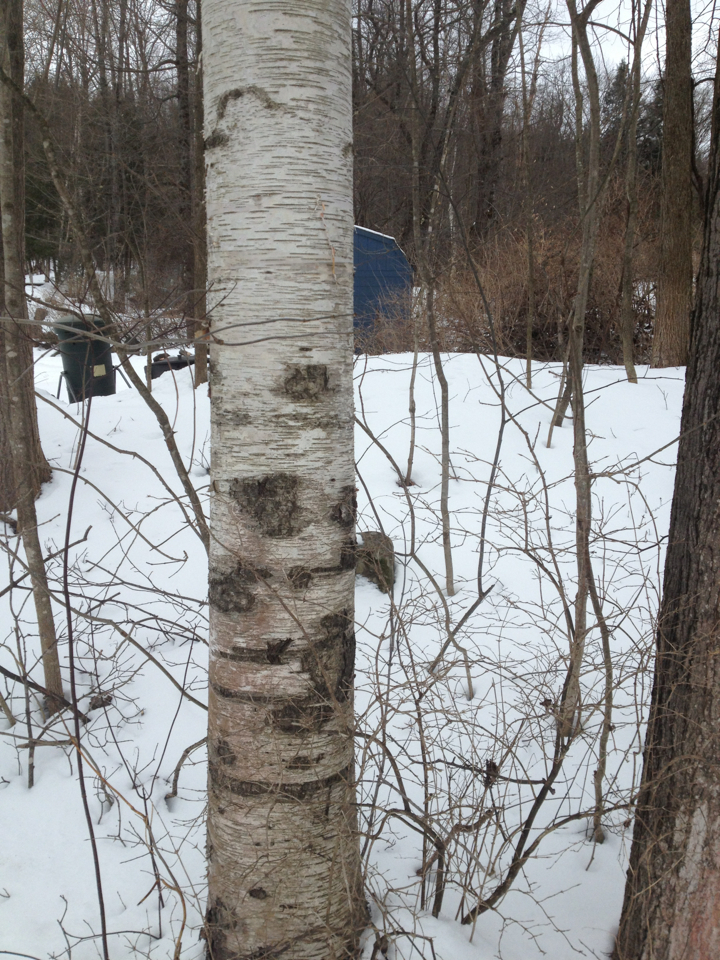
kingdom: Plantae
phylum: Tracheophyta
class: Magnoliopsida
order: Fagales
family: Betulaceae
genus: Betula
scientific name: Betula papyrifera
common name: Paper birch
